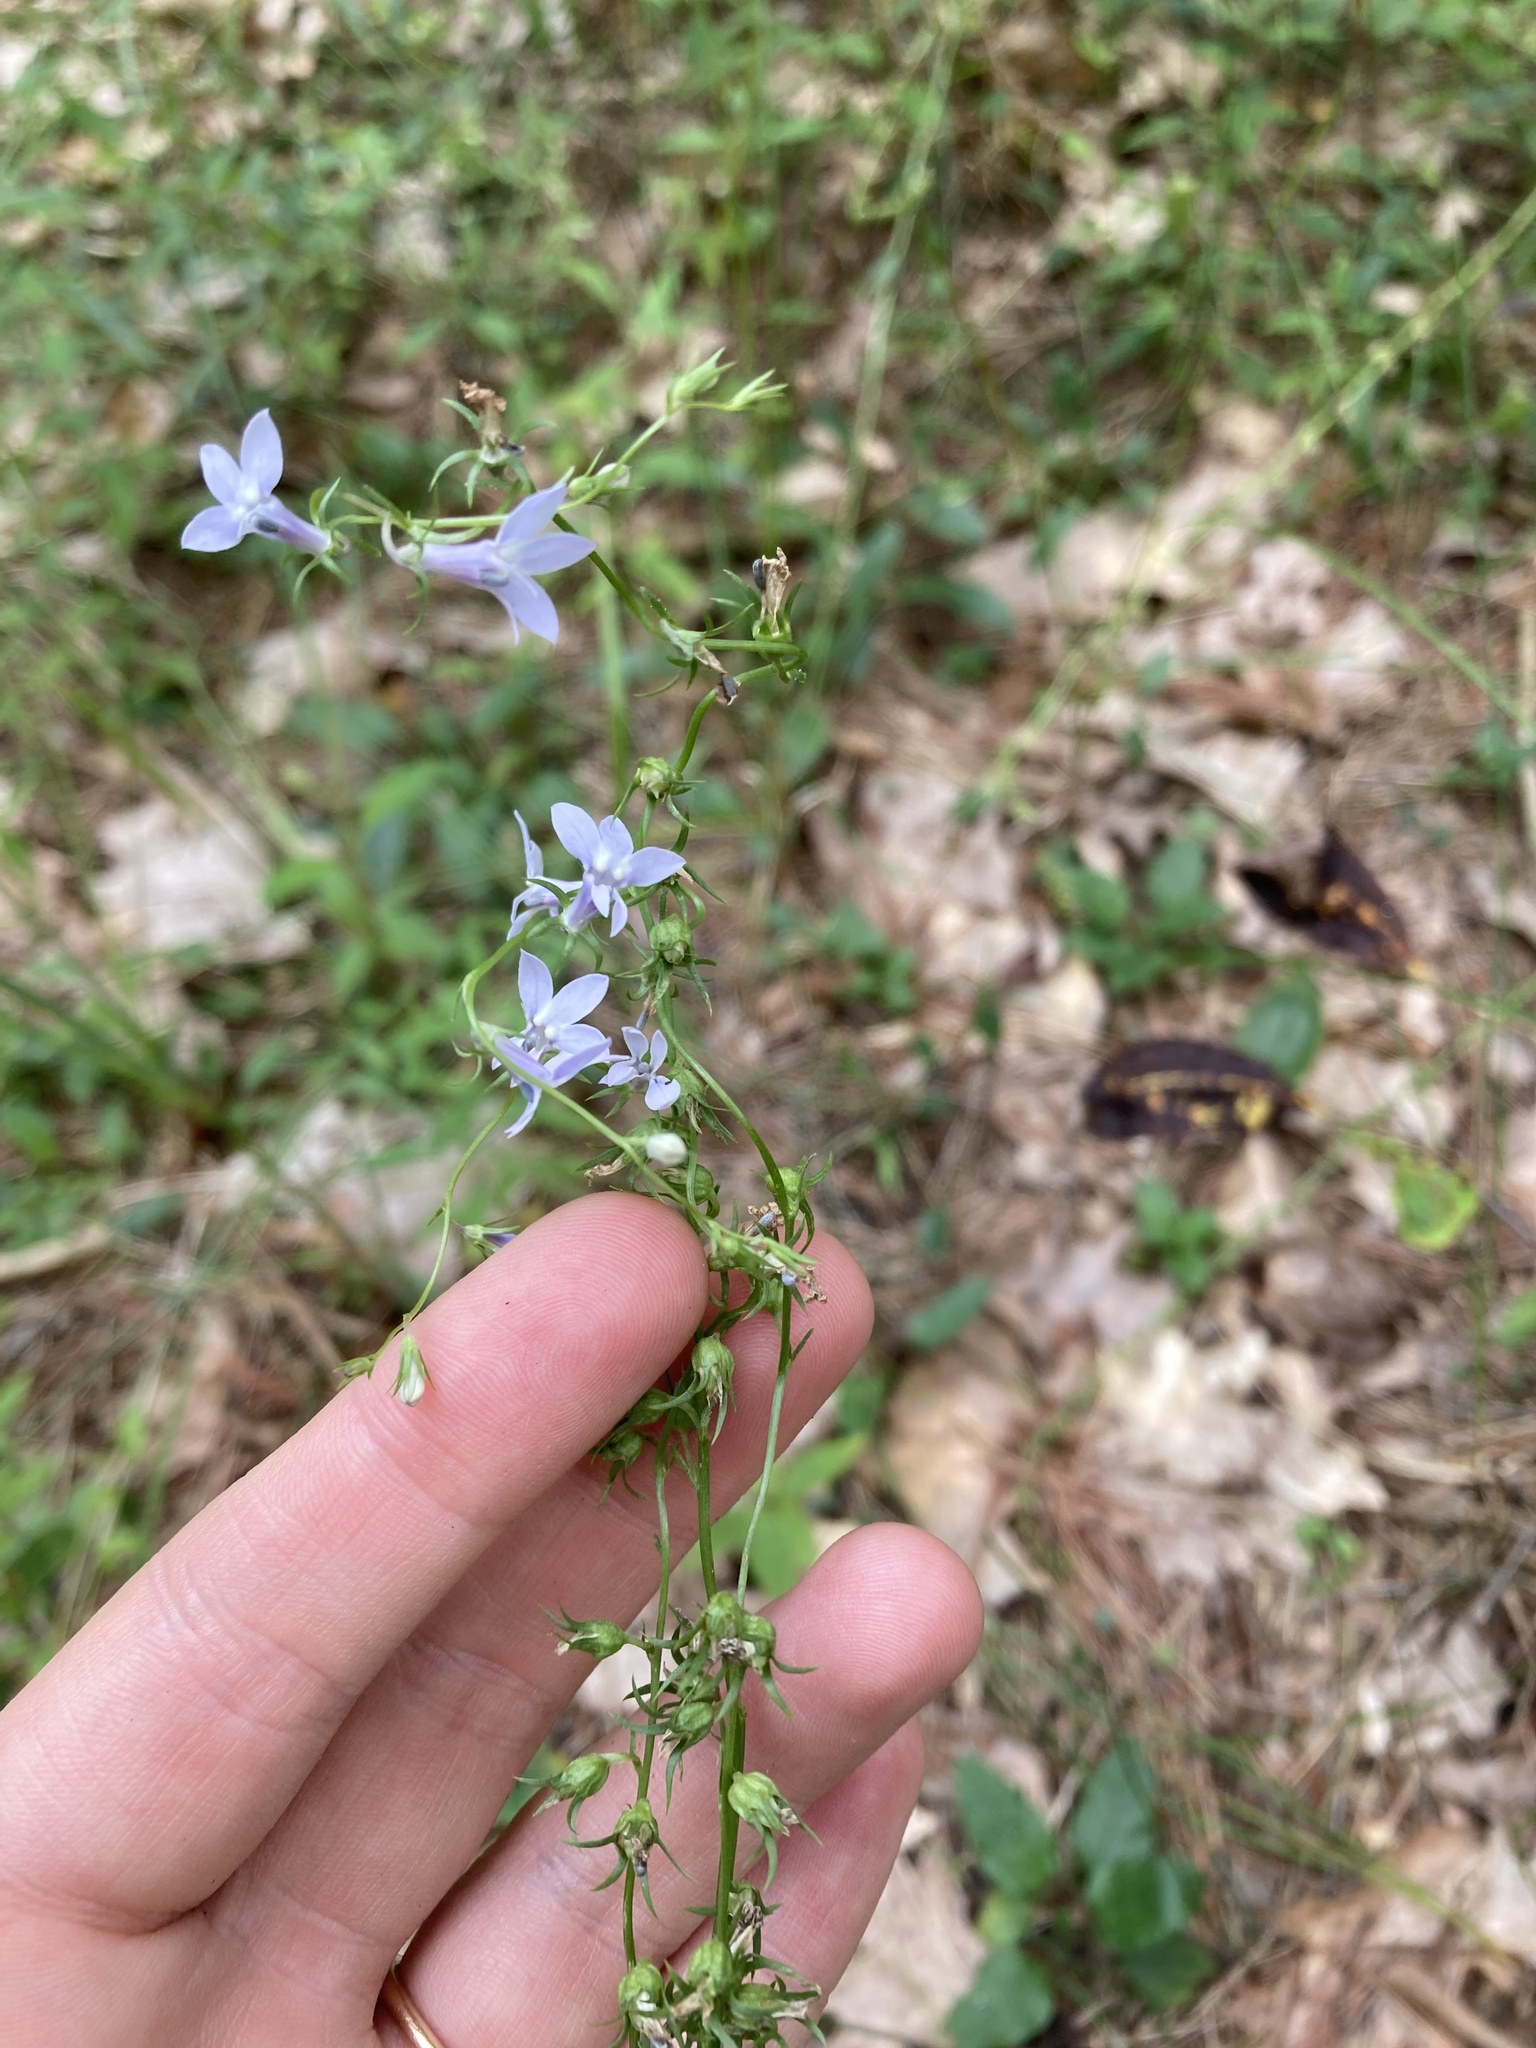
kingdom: Plantae
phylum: Tracheophyta
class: Magnoliopsida
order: Asterales
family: Campanulaceae
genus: Lobelia
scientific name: Lobelia spicata
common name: Pale-spike lobelia
